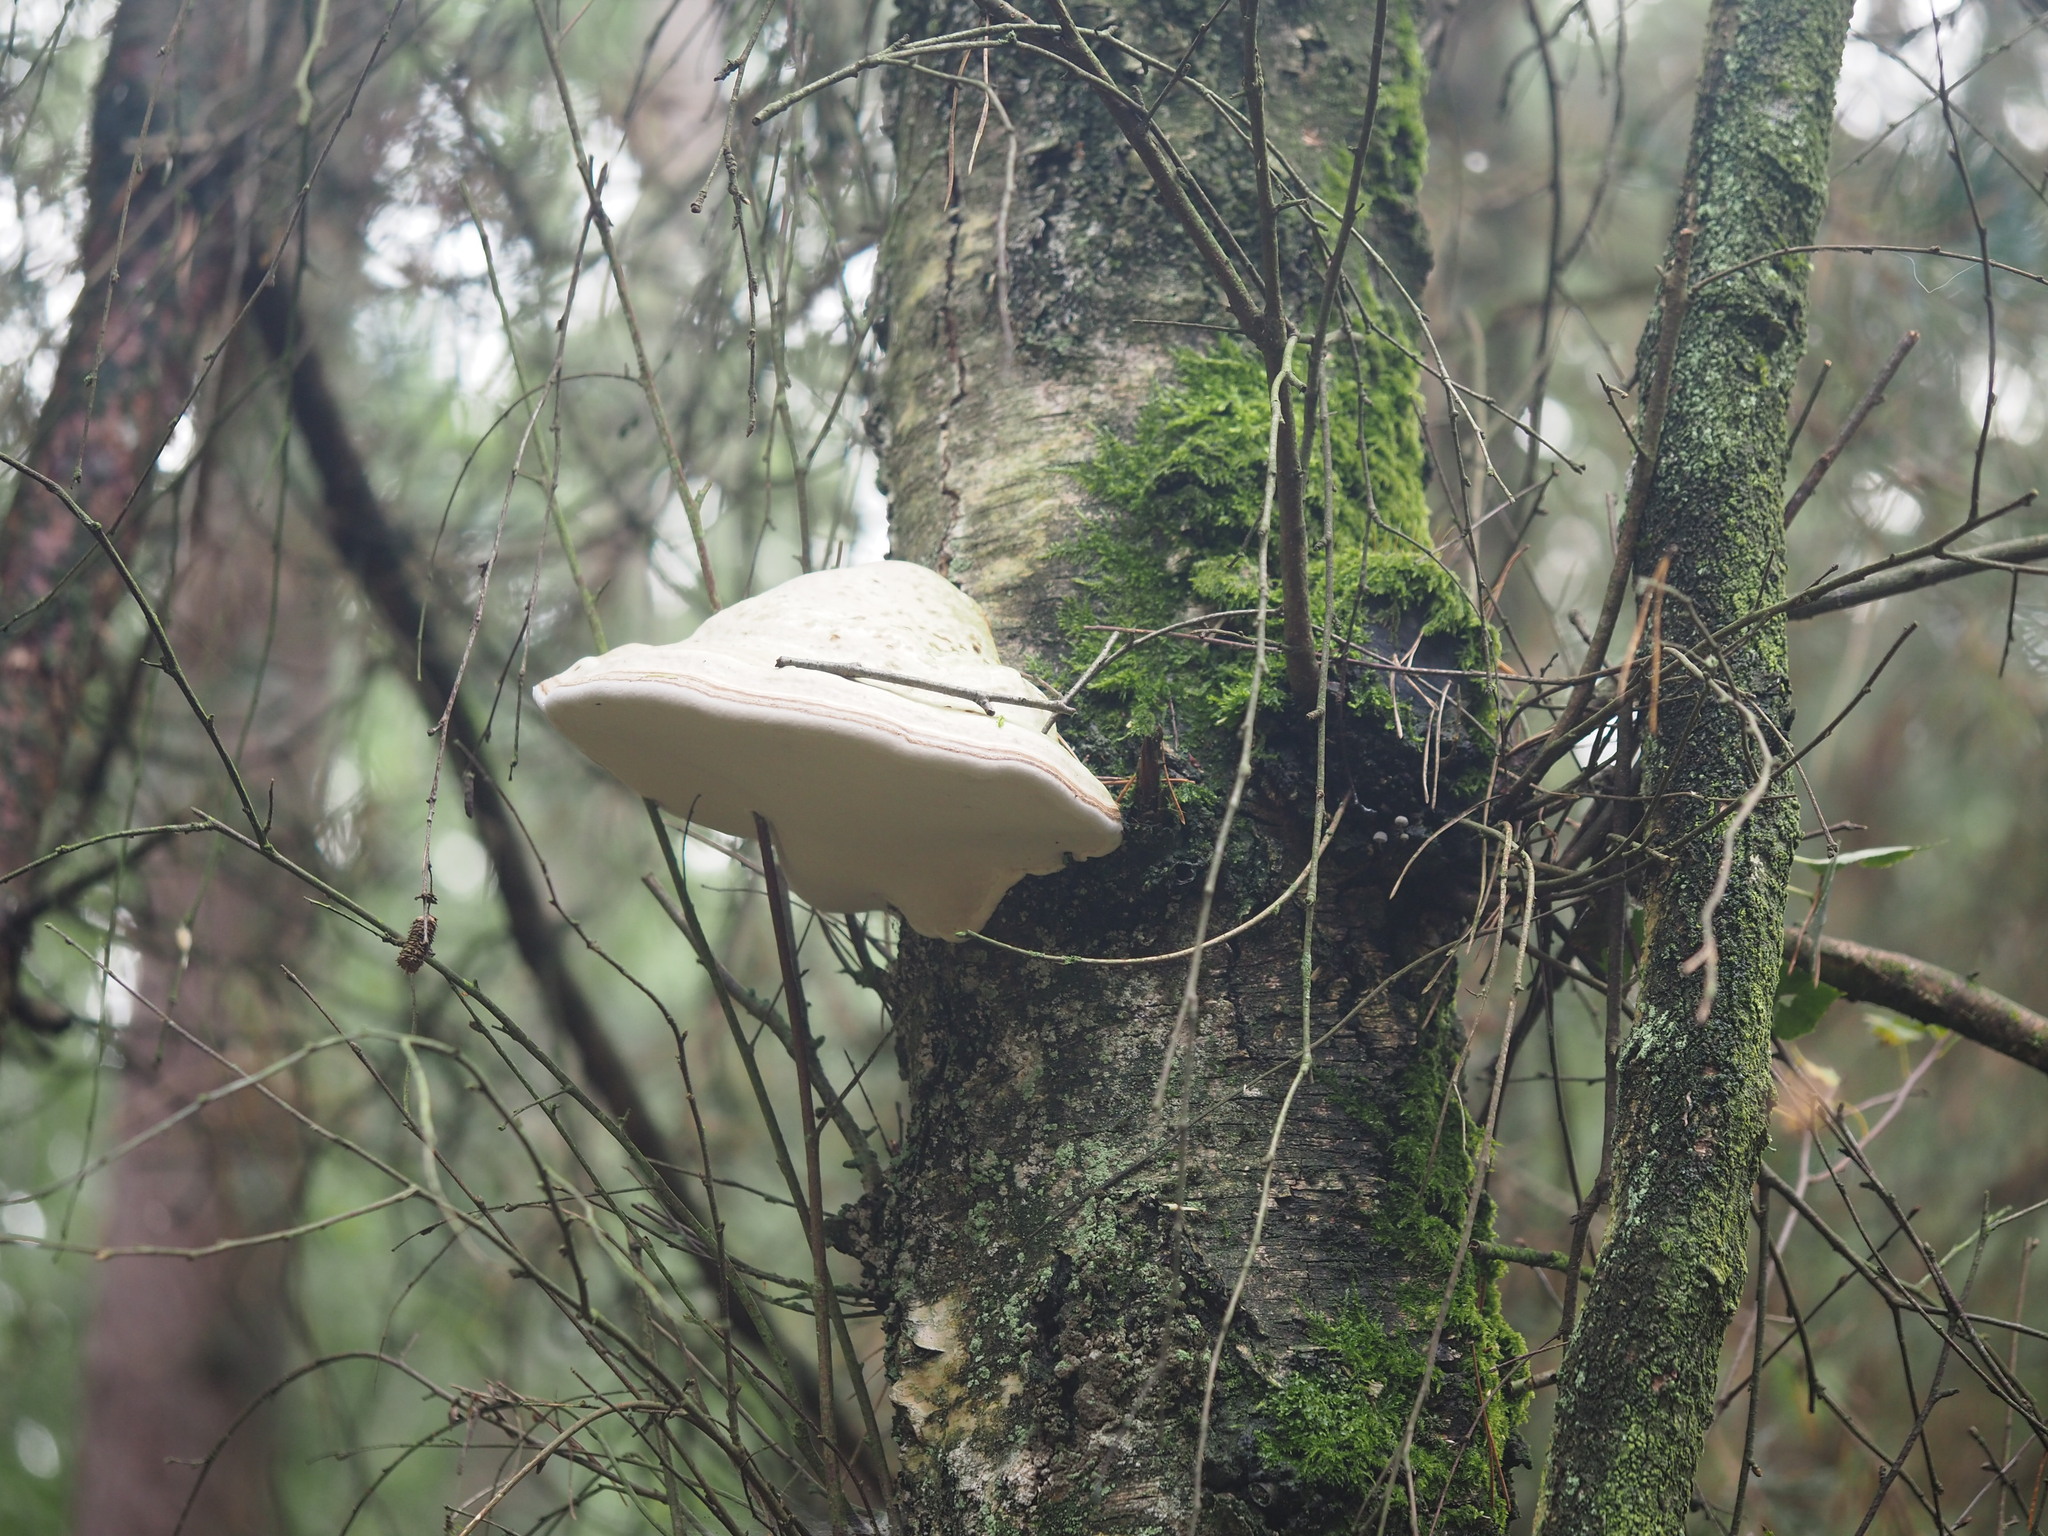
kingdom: Fungi
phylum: Basidiomycota
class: Agaricomycetes
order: Polyporales
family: Polyporaceae
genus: Fomes
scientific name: Fomes fomentarius
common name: Hoof fungus
